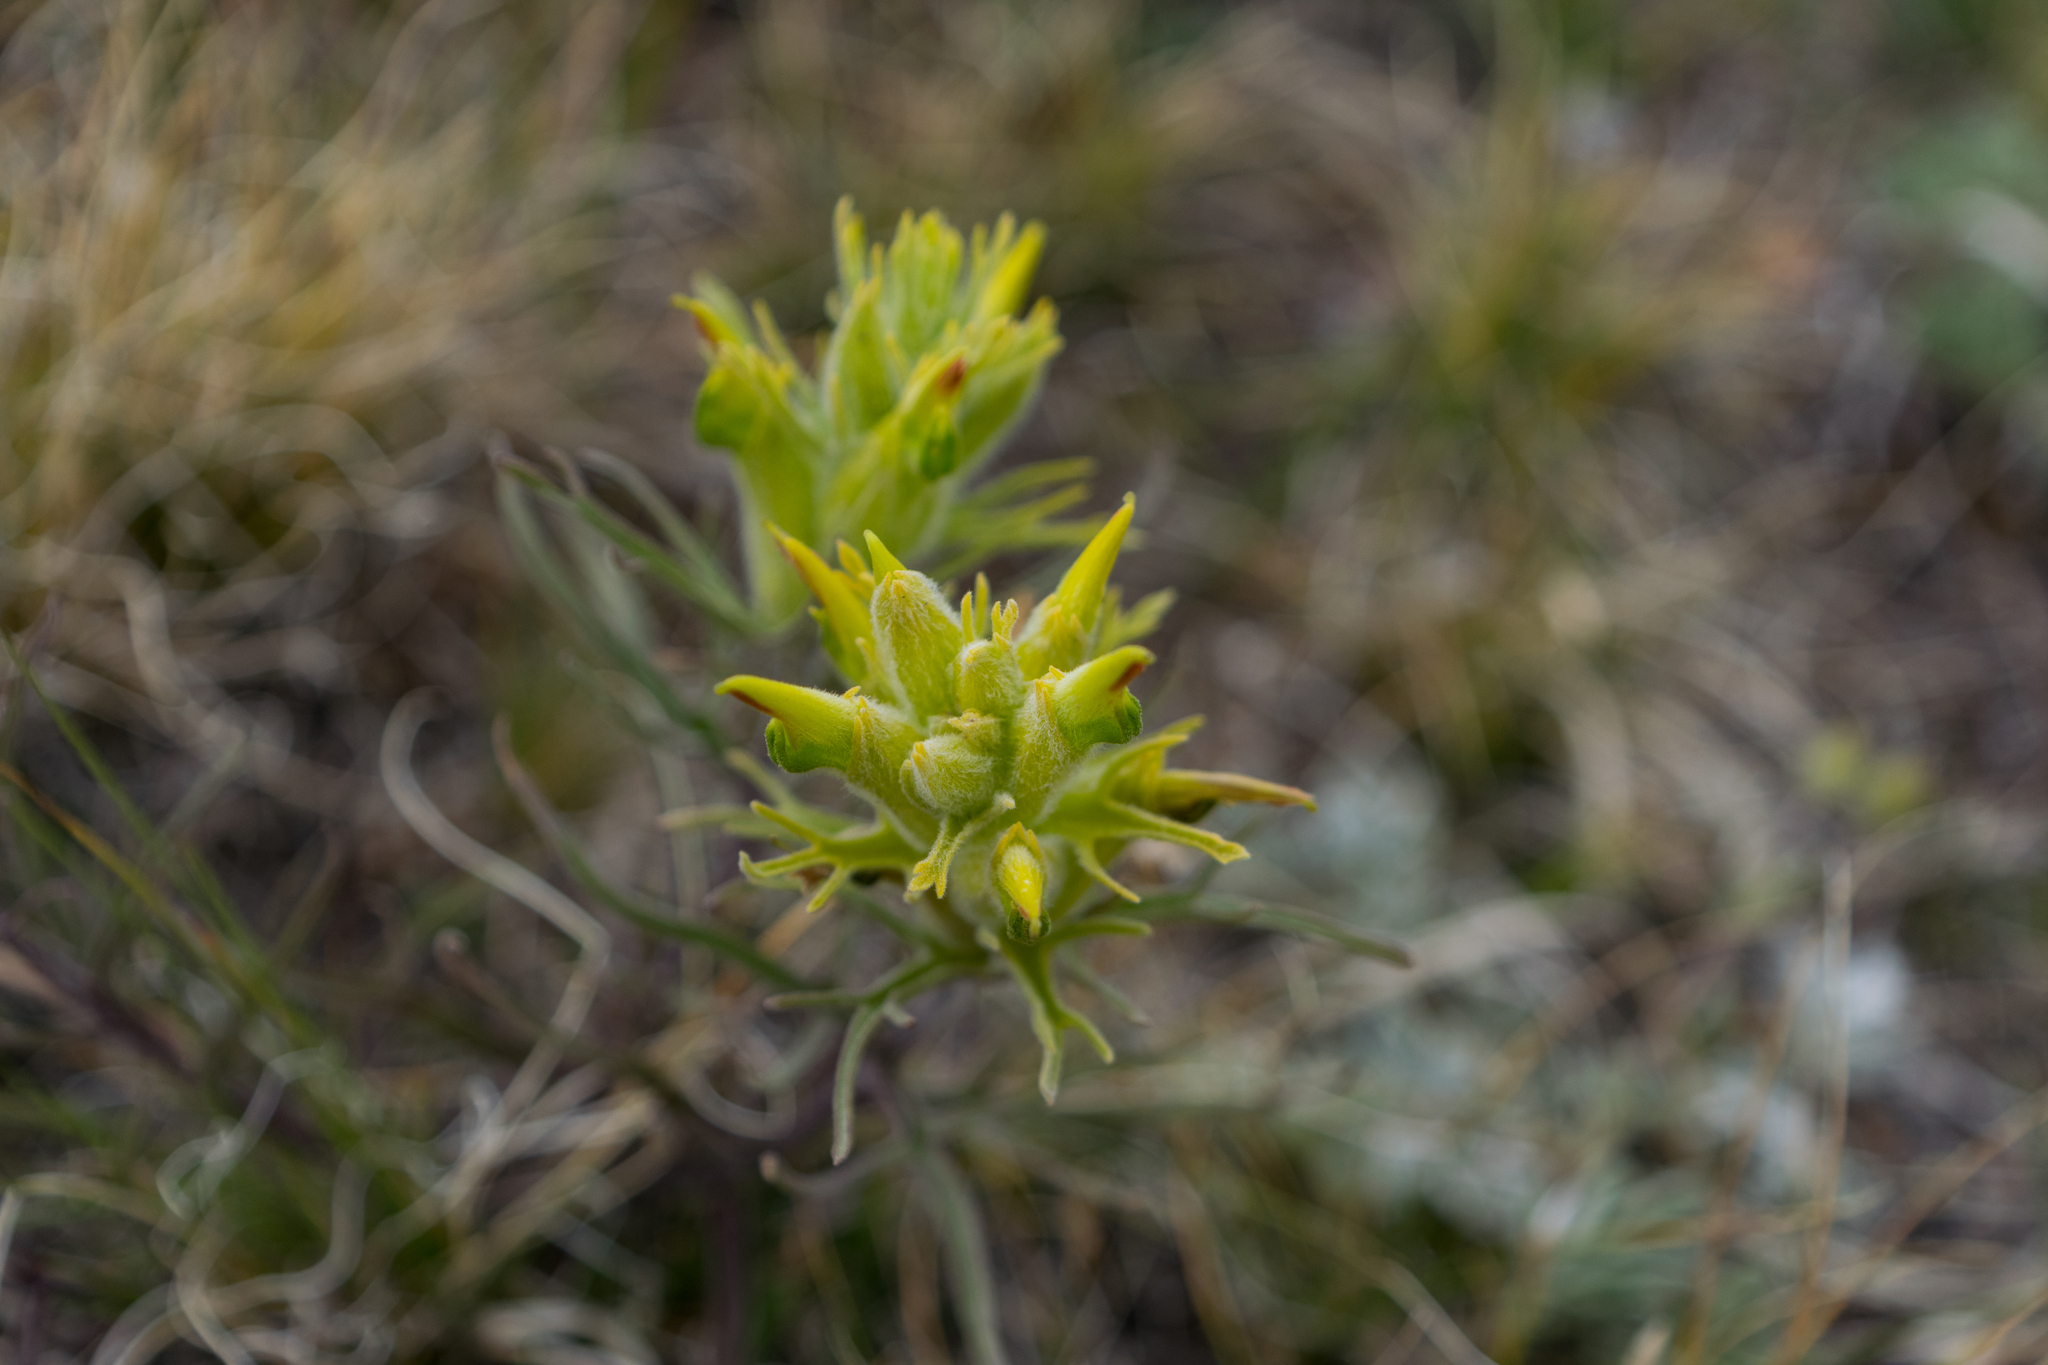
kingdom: Plantae
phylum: Tracheophyta
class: Magnoliopsida
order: Lamiales
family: Orobanchaceae
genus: Castilleja
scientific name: Castilleja puberula
